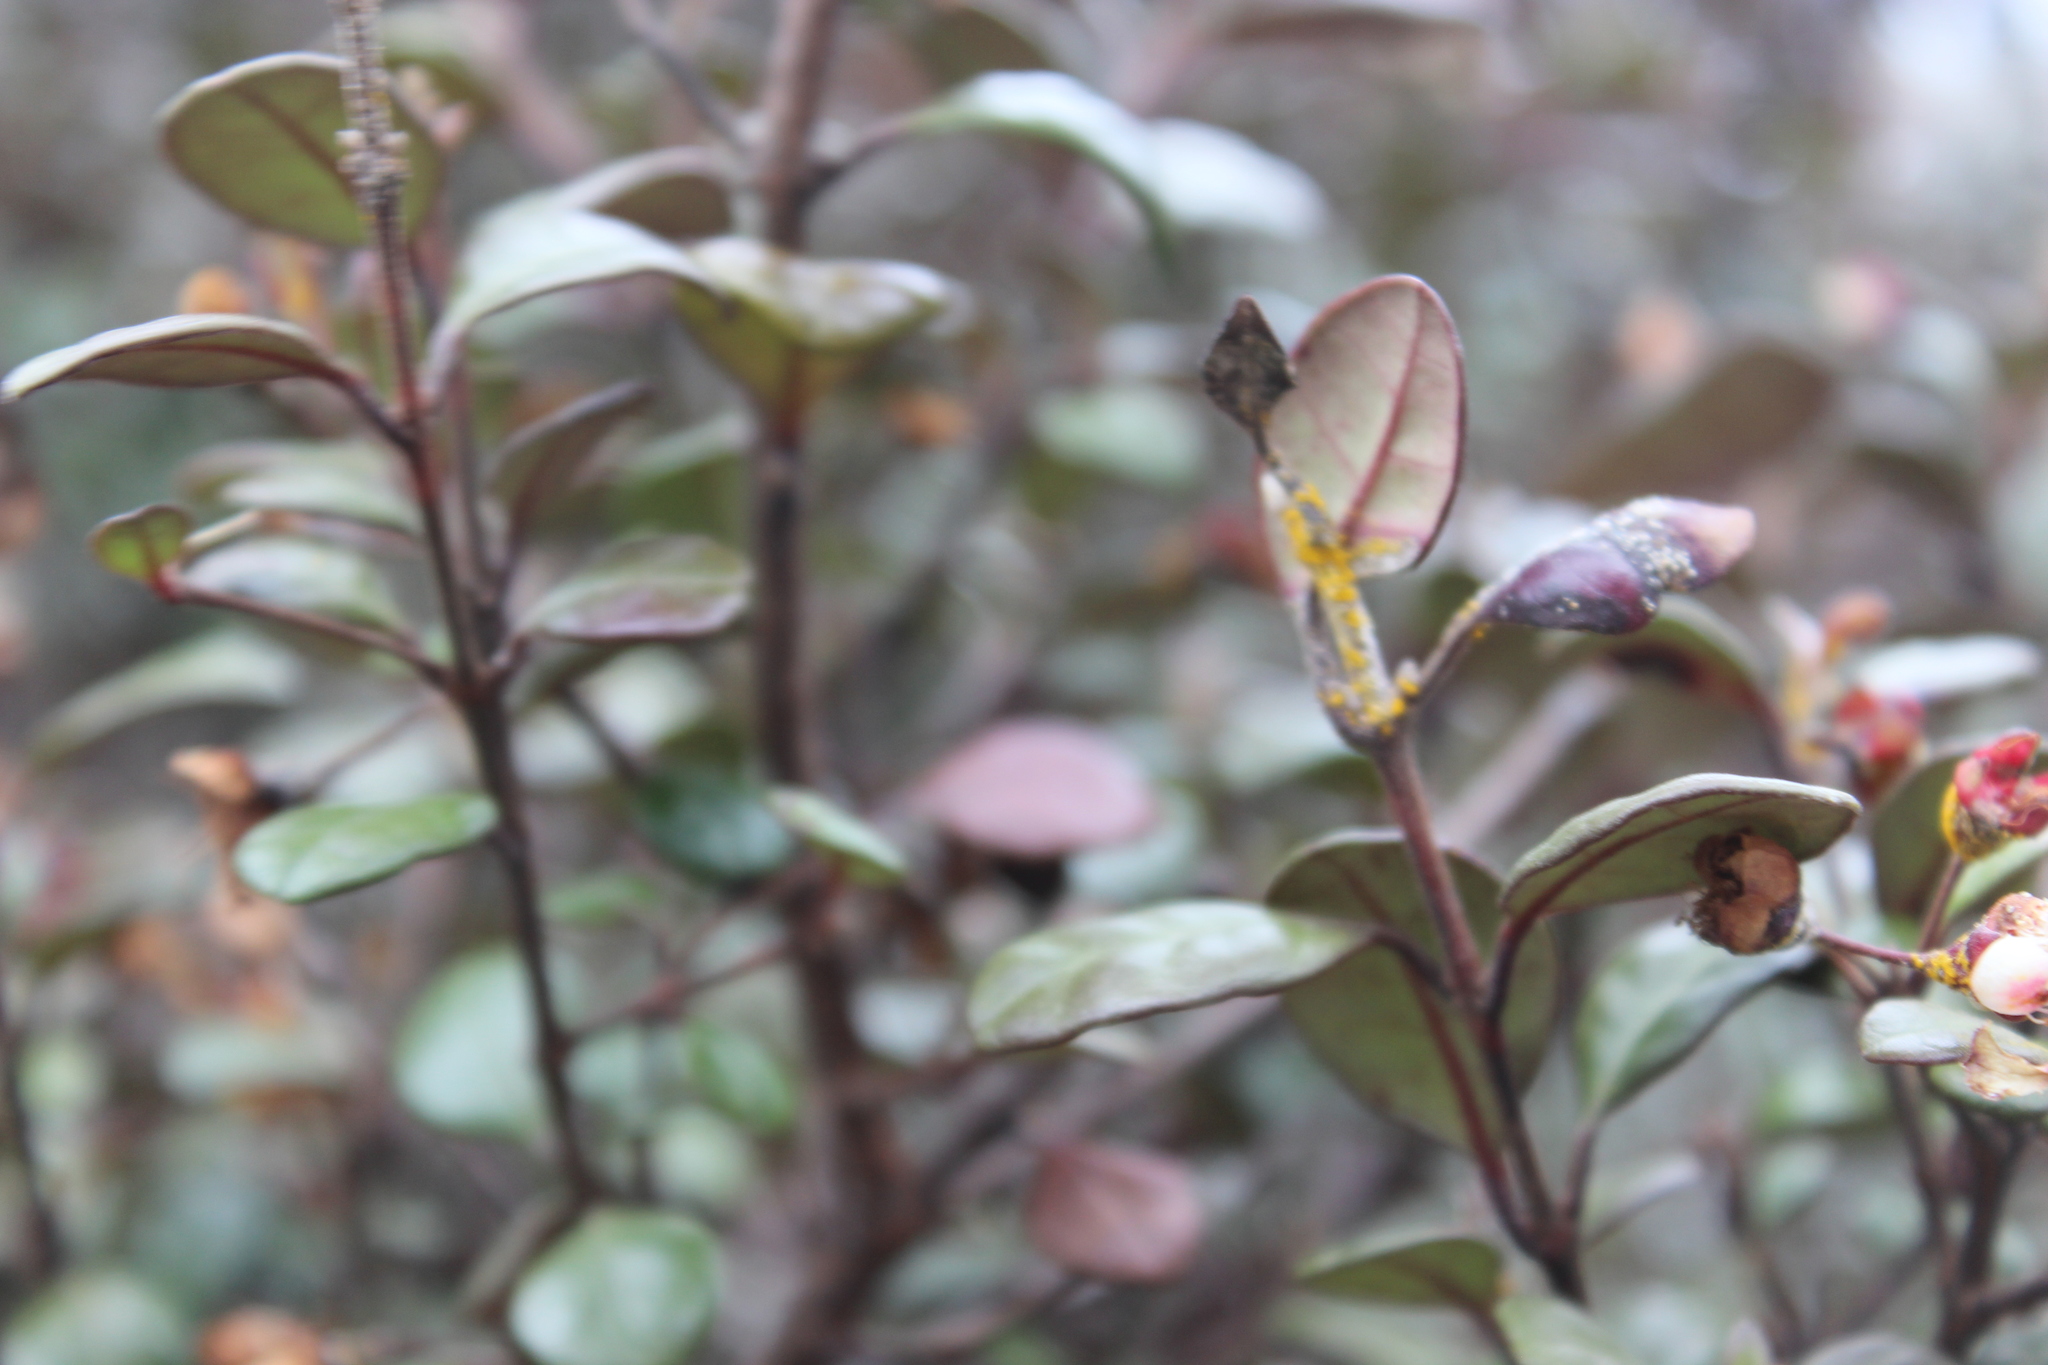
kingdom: Fungi
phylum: Basidiomycota
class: Pucciniomycetes
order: Pucciniales
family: Sphaerophragmiaceae
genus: Austropuccinia
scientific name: Austropuccinia psidii
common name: Myrtle rust
